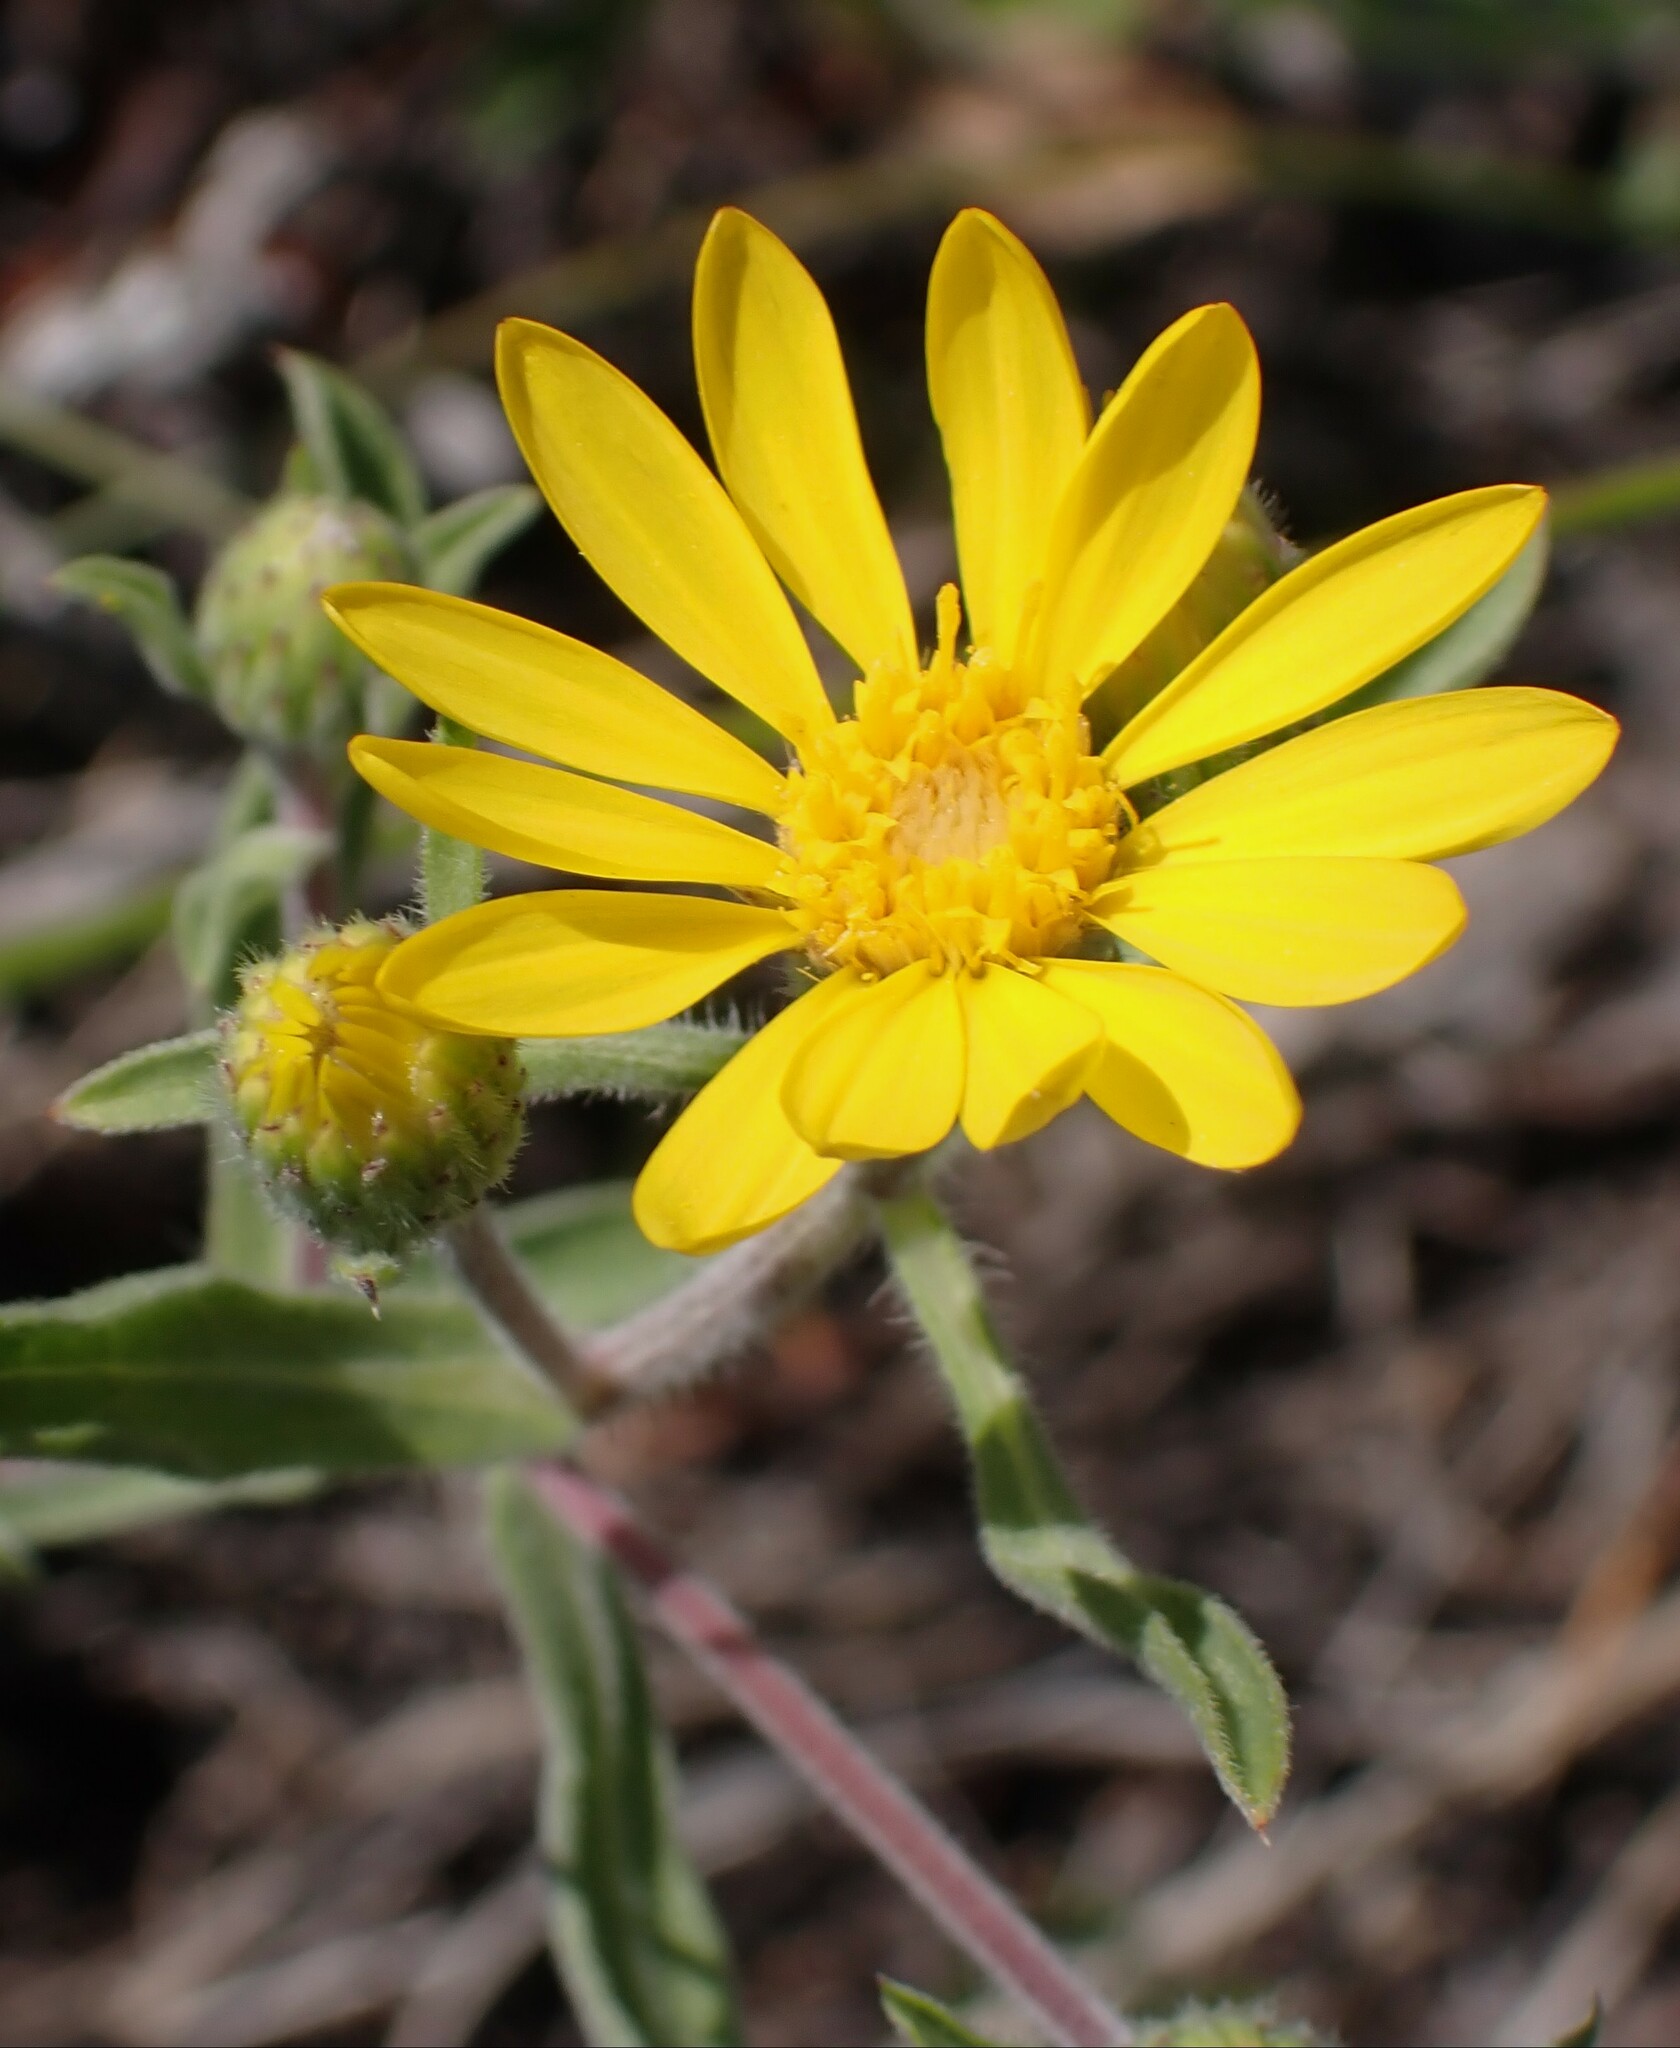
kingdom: Plantae
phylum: Tracheophyta
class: Magnoliopsida
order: Asterales
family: Asteraceae
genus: Heterotheca
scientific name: Heterotheca villosa
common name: Hairy false goldenaster
